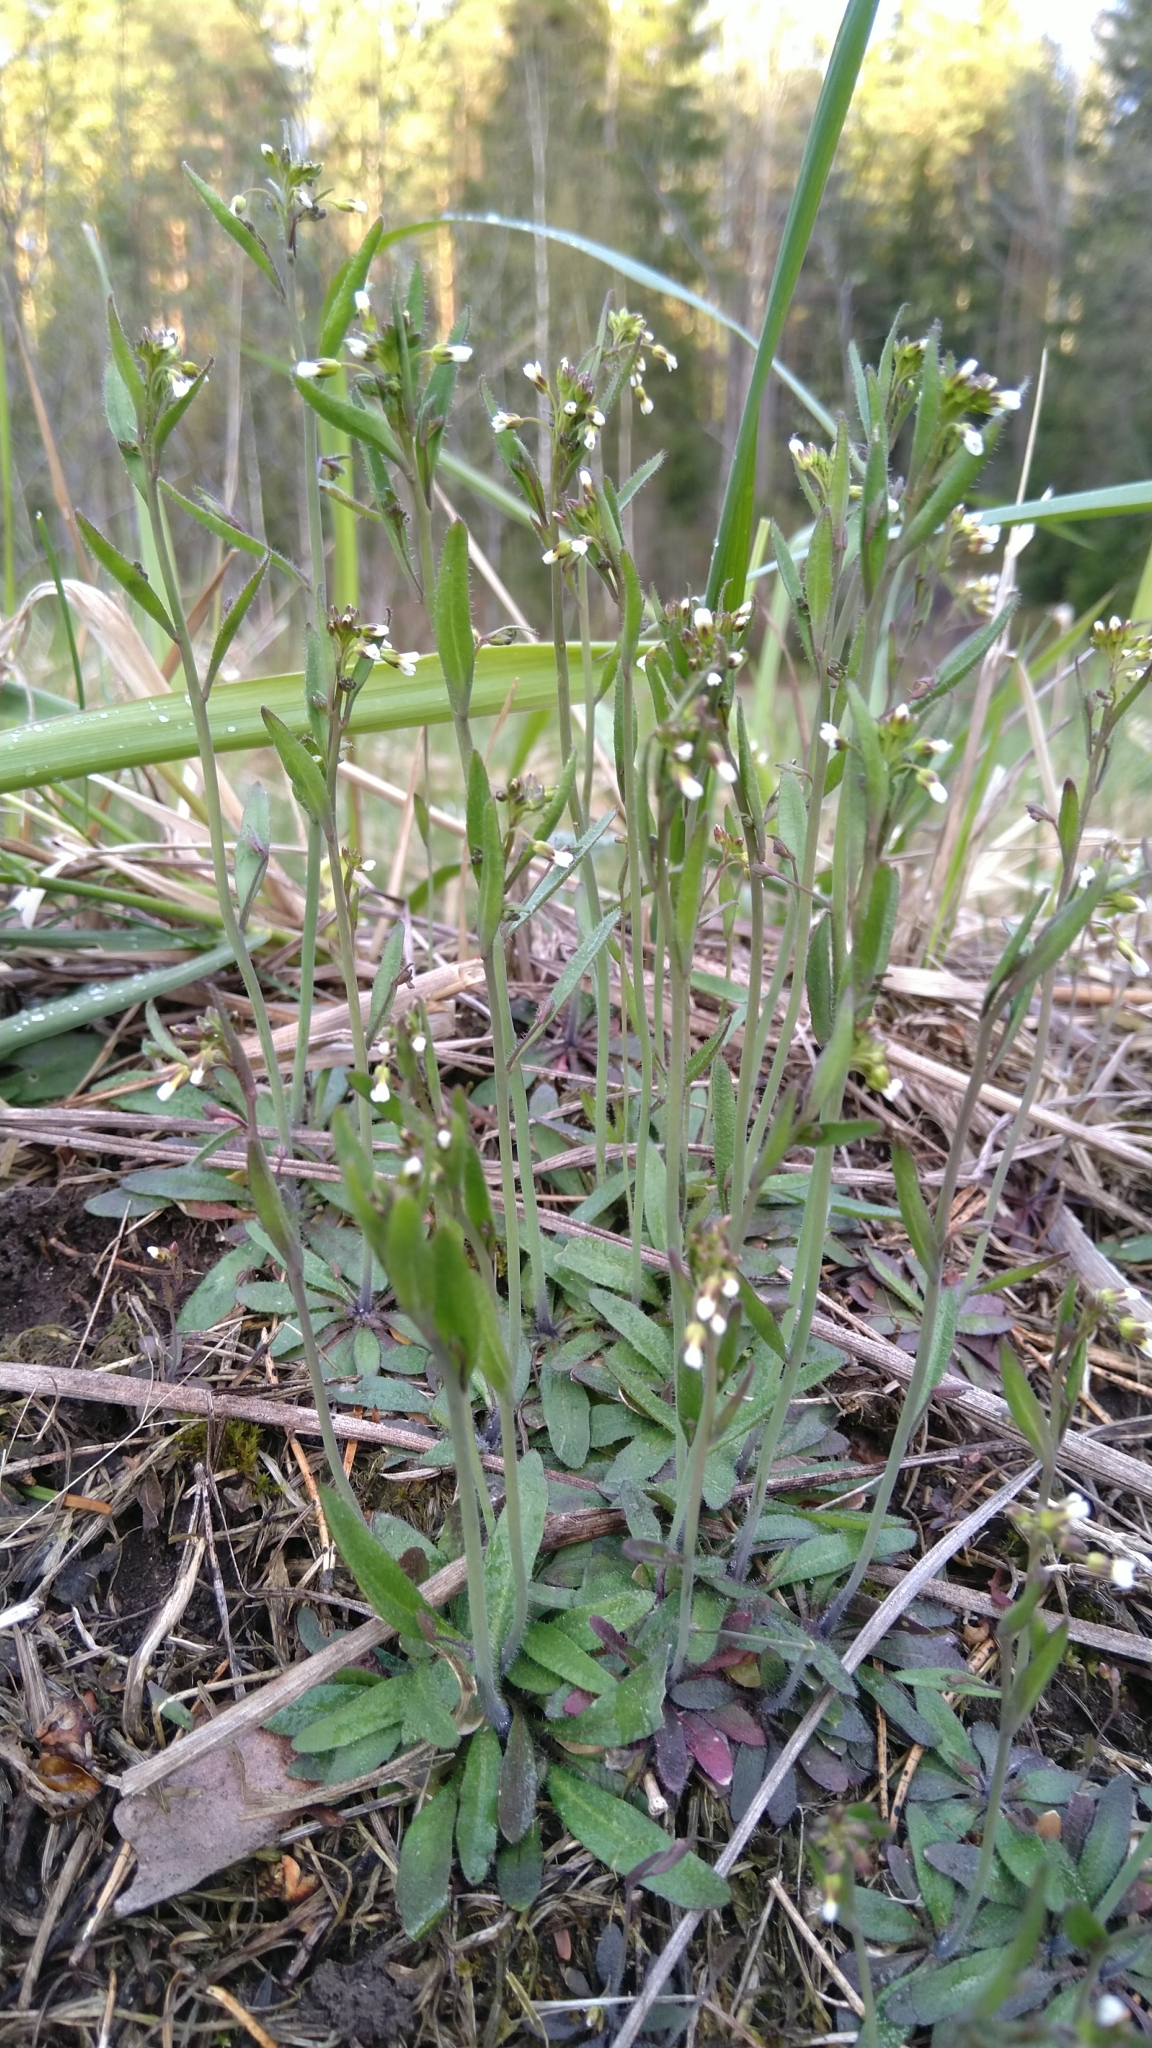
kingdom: Plantae
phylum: Tracheophyta
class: Magnoliopsida
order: Brassicales
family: Brassicaceae
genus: Arabidopsis
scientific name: Arabidopsis thaliana
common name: Thale cress
